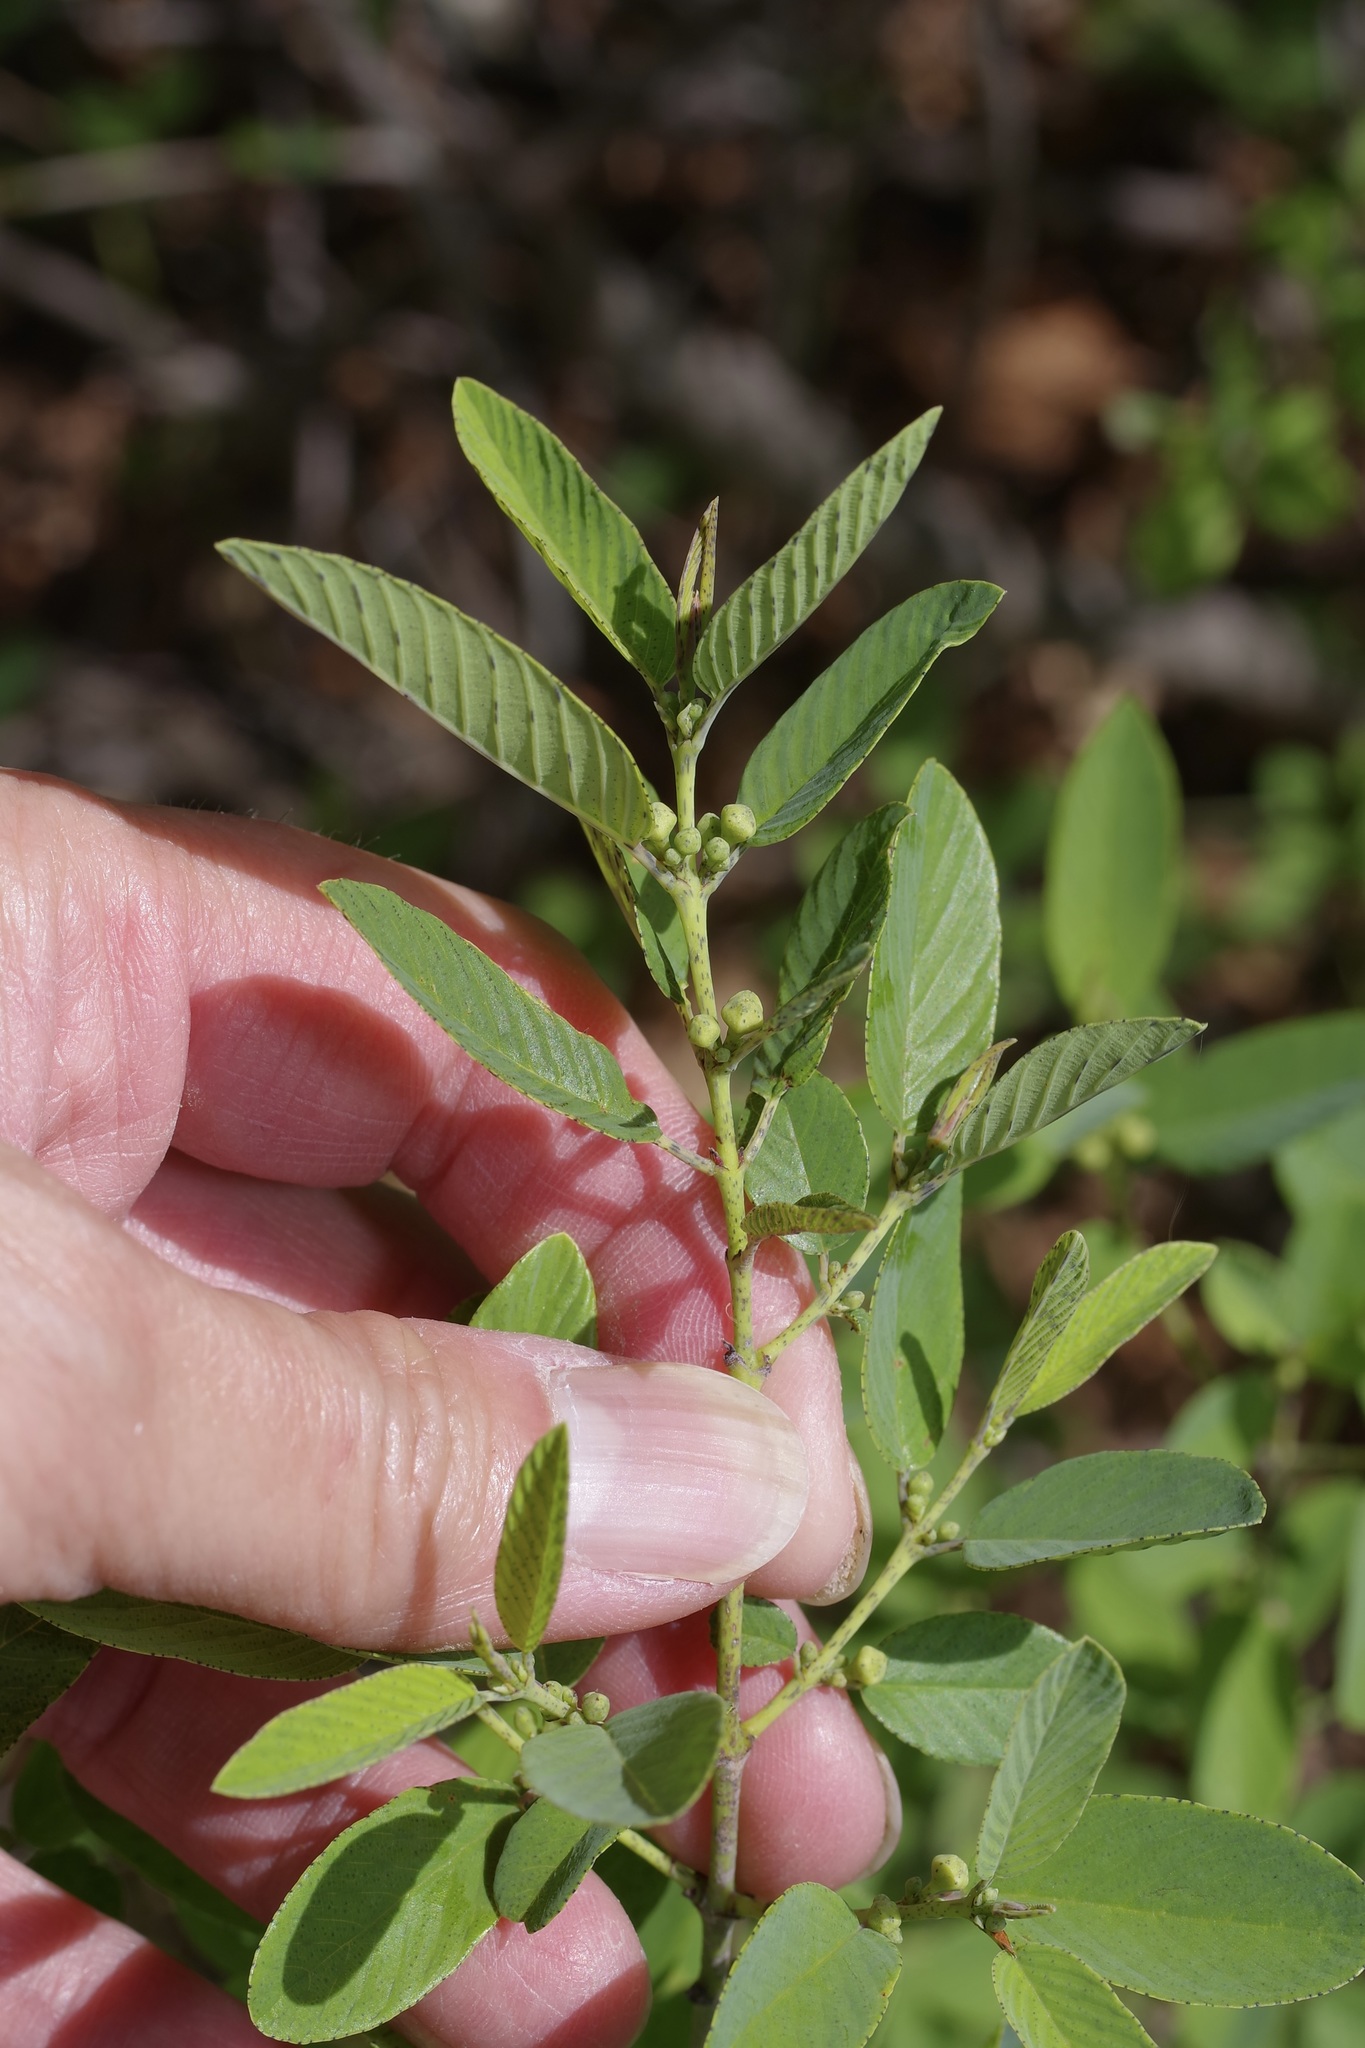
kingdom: Plantae
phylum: Tracheophyta
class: Magnoliopsida
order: Rosales
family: Rhamnaceae
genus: Karwinskia
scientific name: Karwinskia humboldtiana
